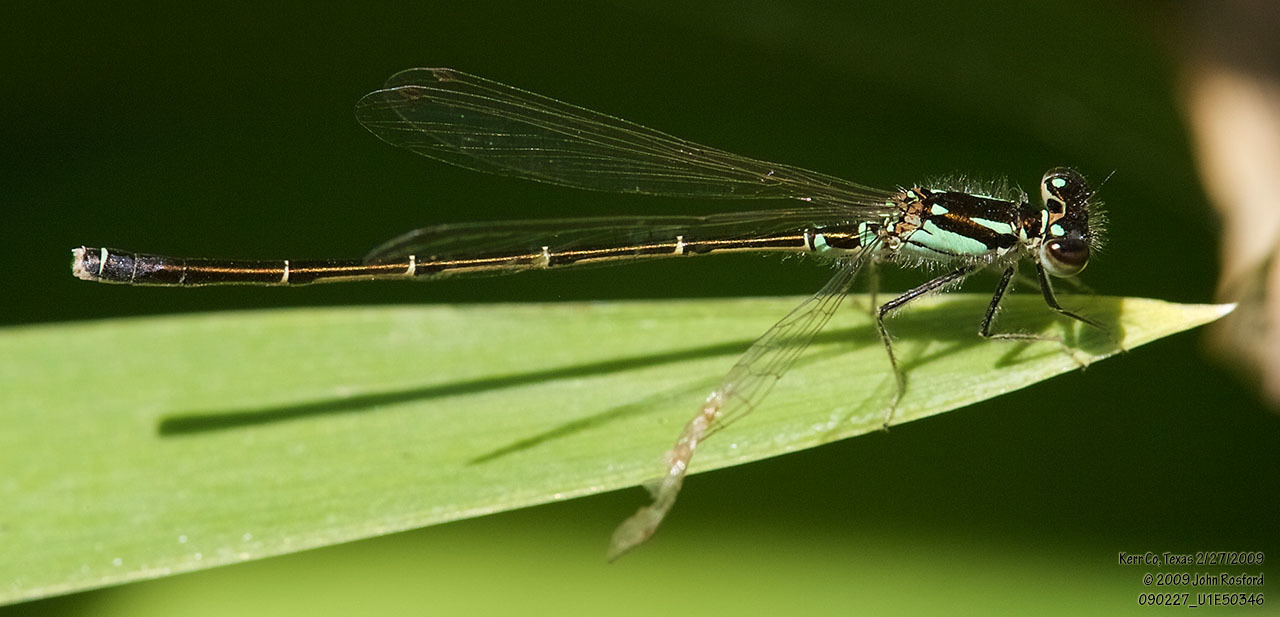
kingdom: Animalia
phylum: Arthropoda
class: Insecta
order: Odonata
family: Coenagrionidae
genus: Ischnura
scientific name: Ischnura posita
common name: Fragile forktail
